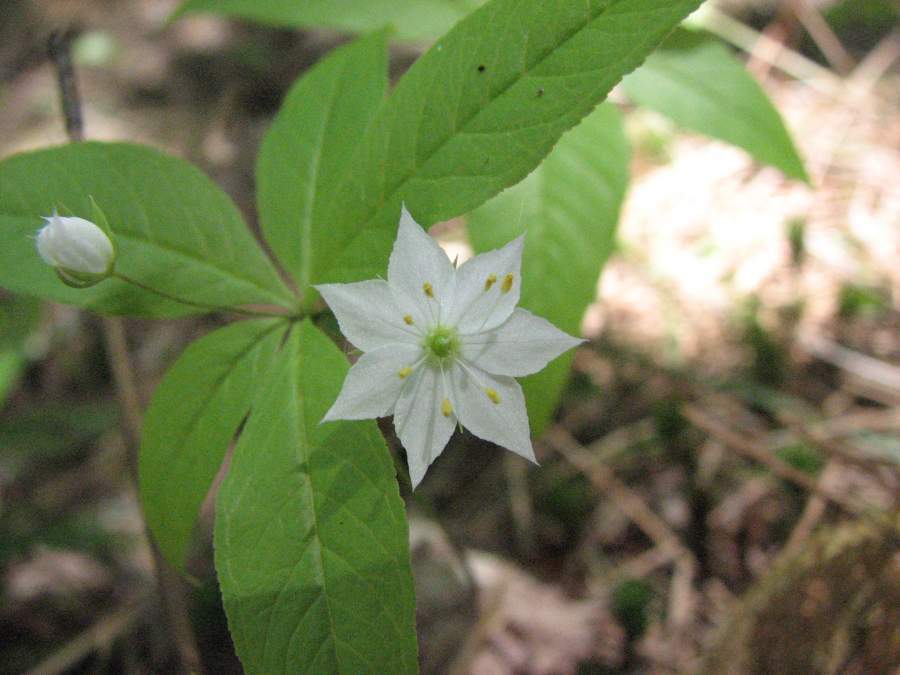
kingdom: Plantae
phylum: Tracheophyta
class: Magnoliopsida
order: Ericales
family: Primulaceae
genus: Lysimachia
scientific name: Lysimachia borealis
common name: American starflower
